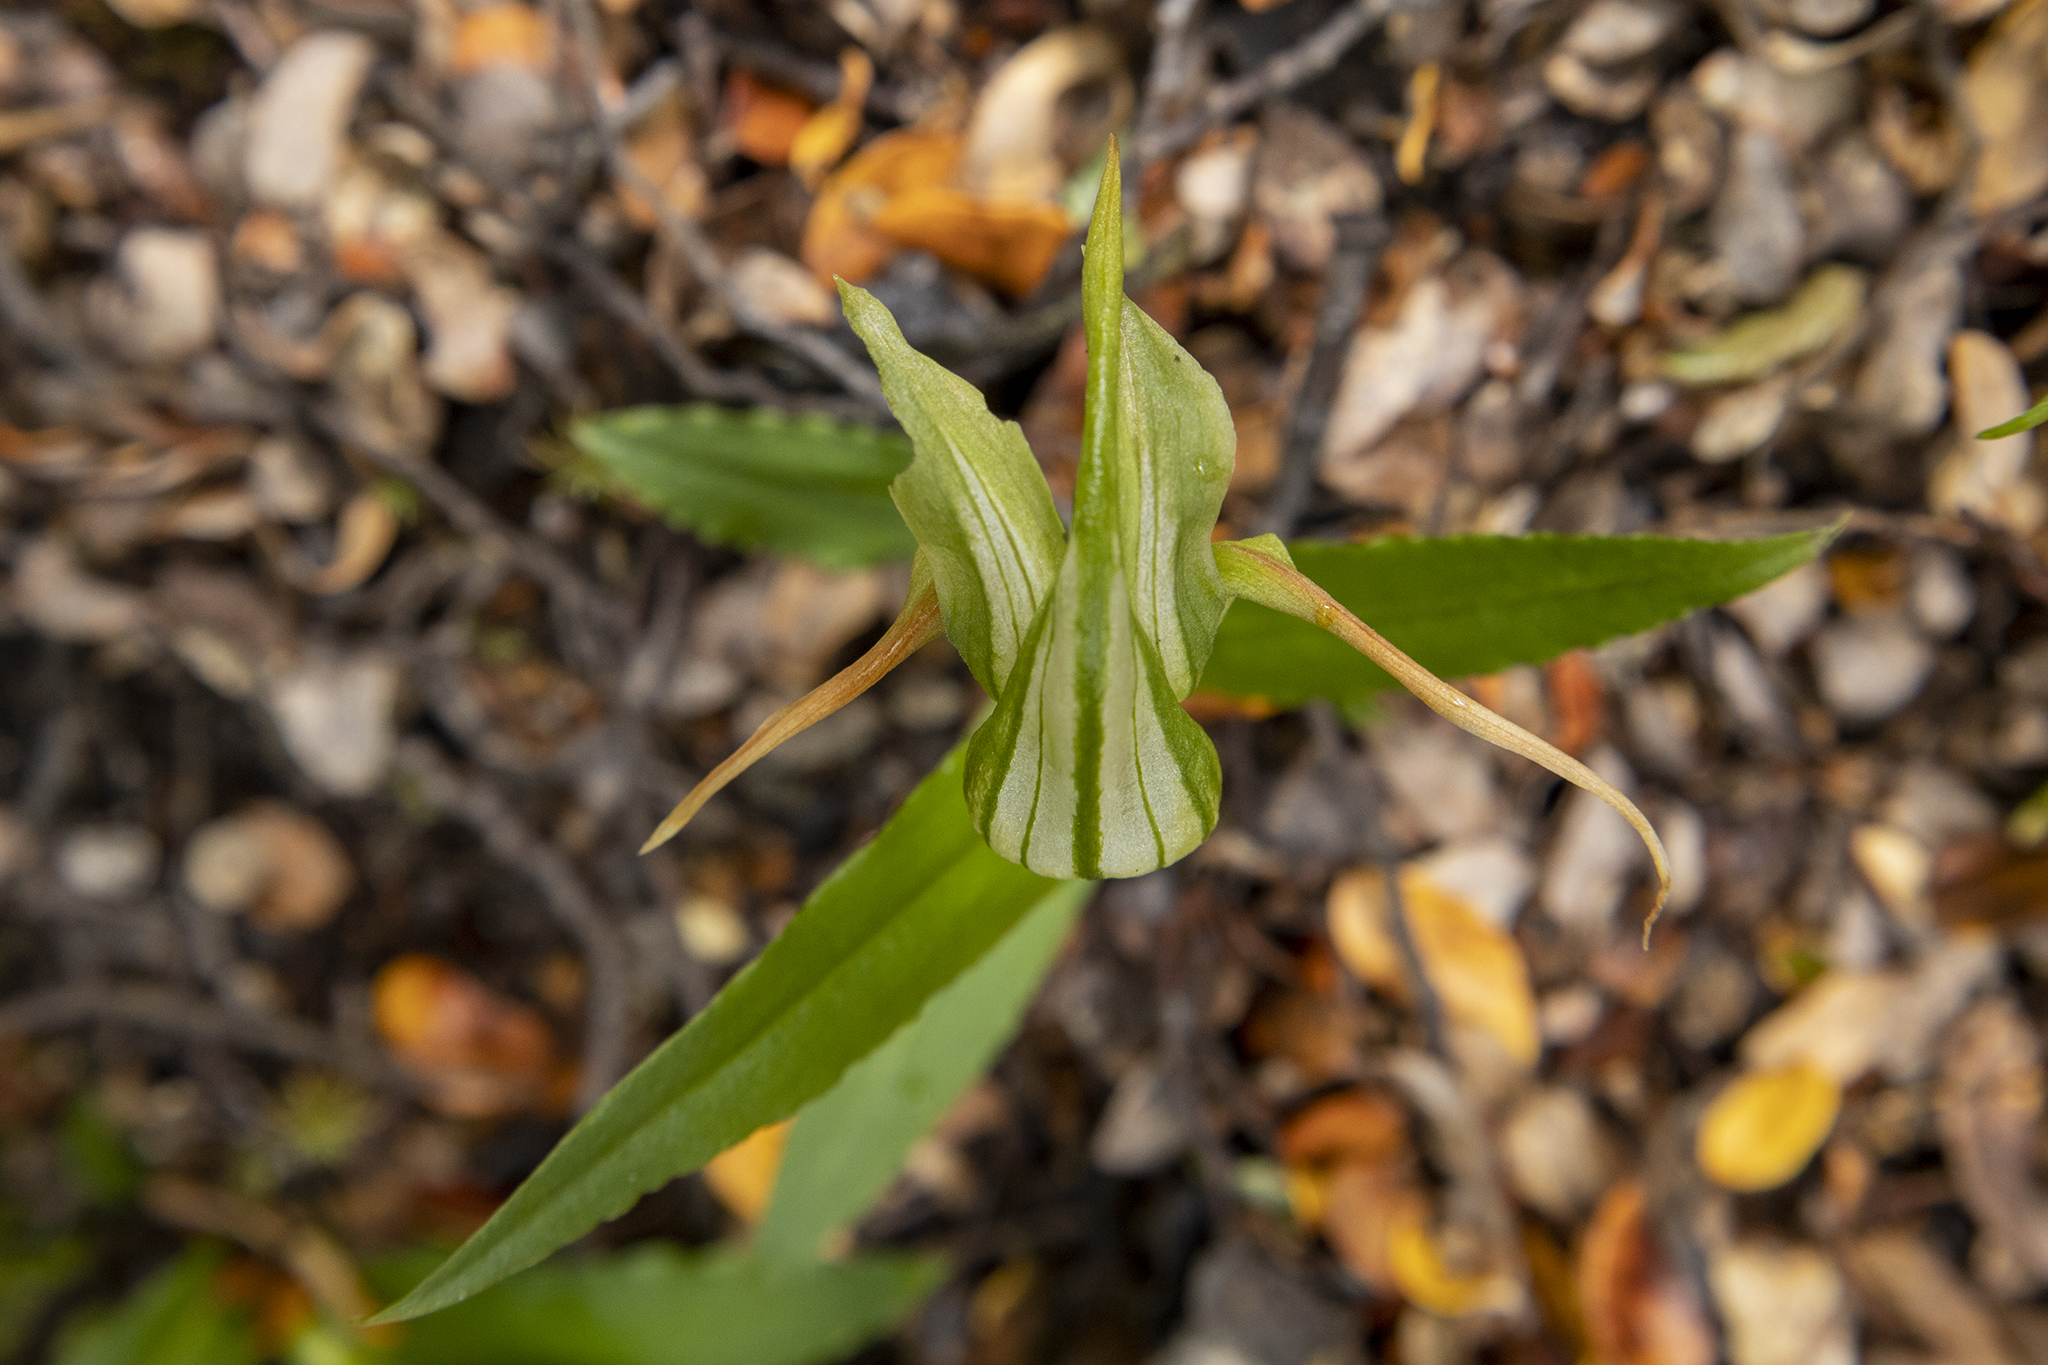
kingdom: Plantae
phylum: Tracheophyta
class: Liliopsida
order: Asparagales
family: Orchidaceae
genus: Pterostylis
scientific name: Pterostylis australis
